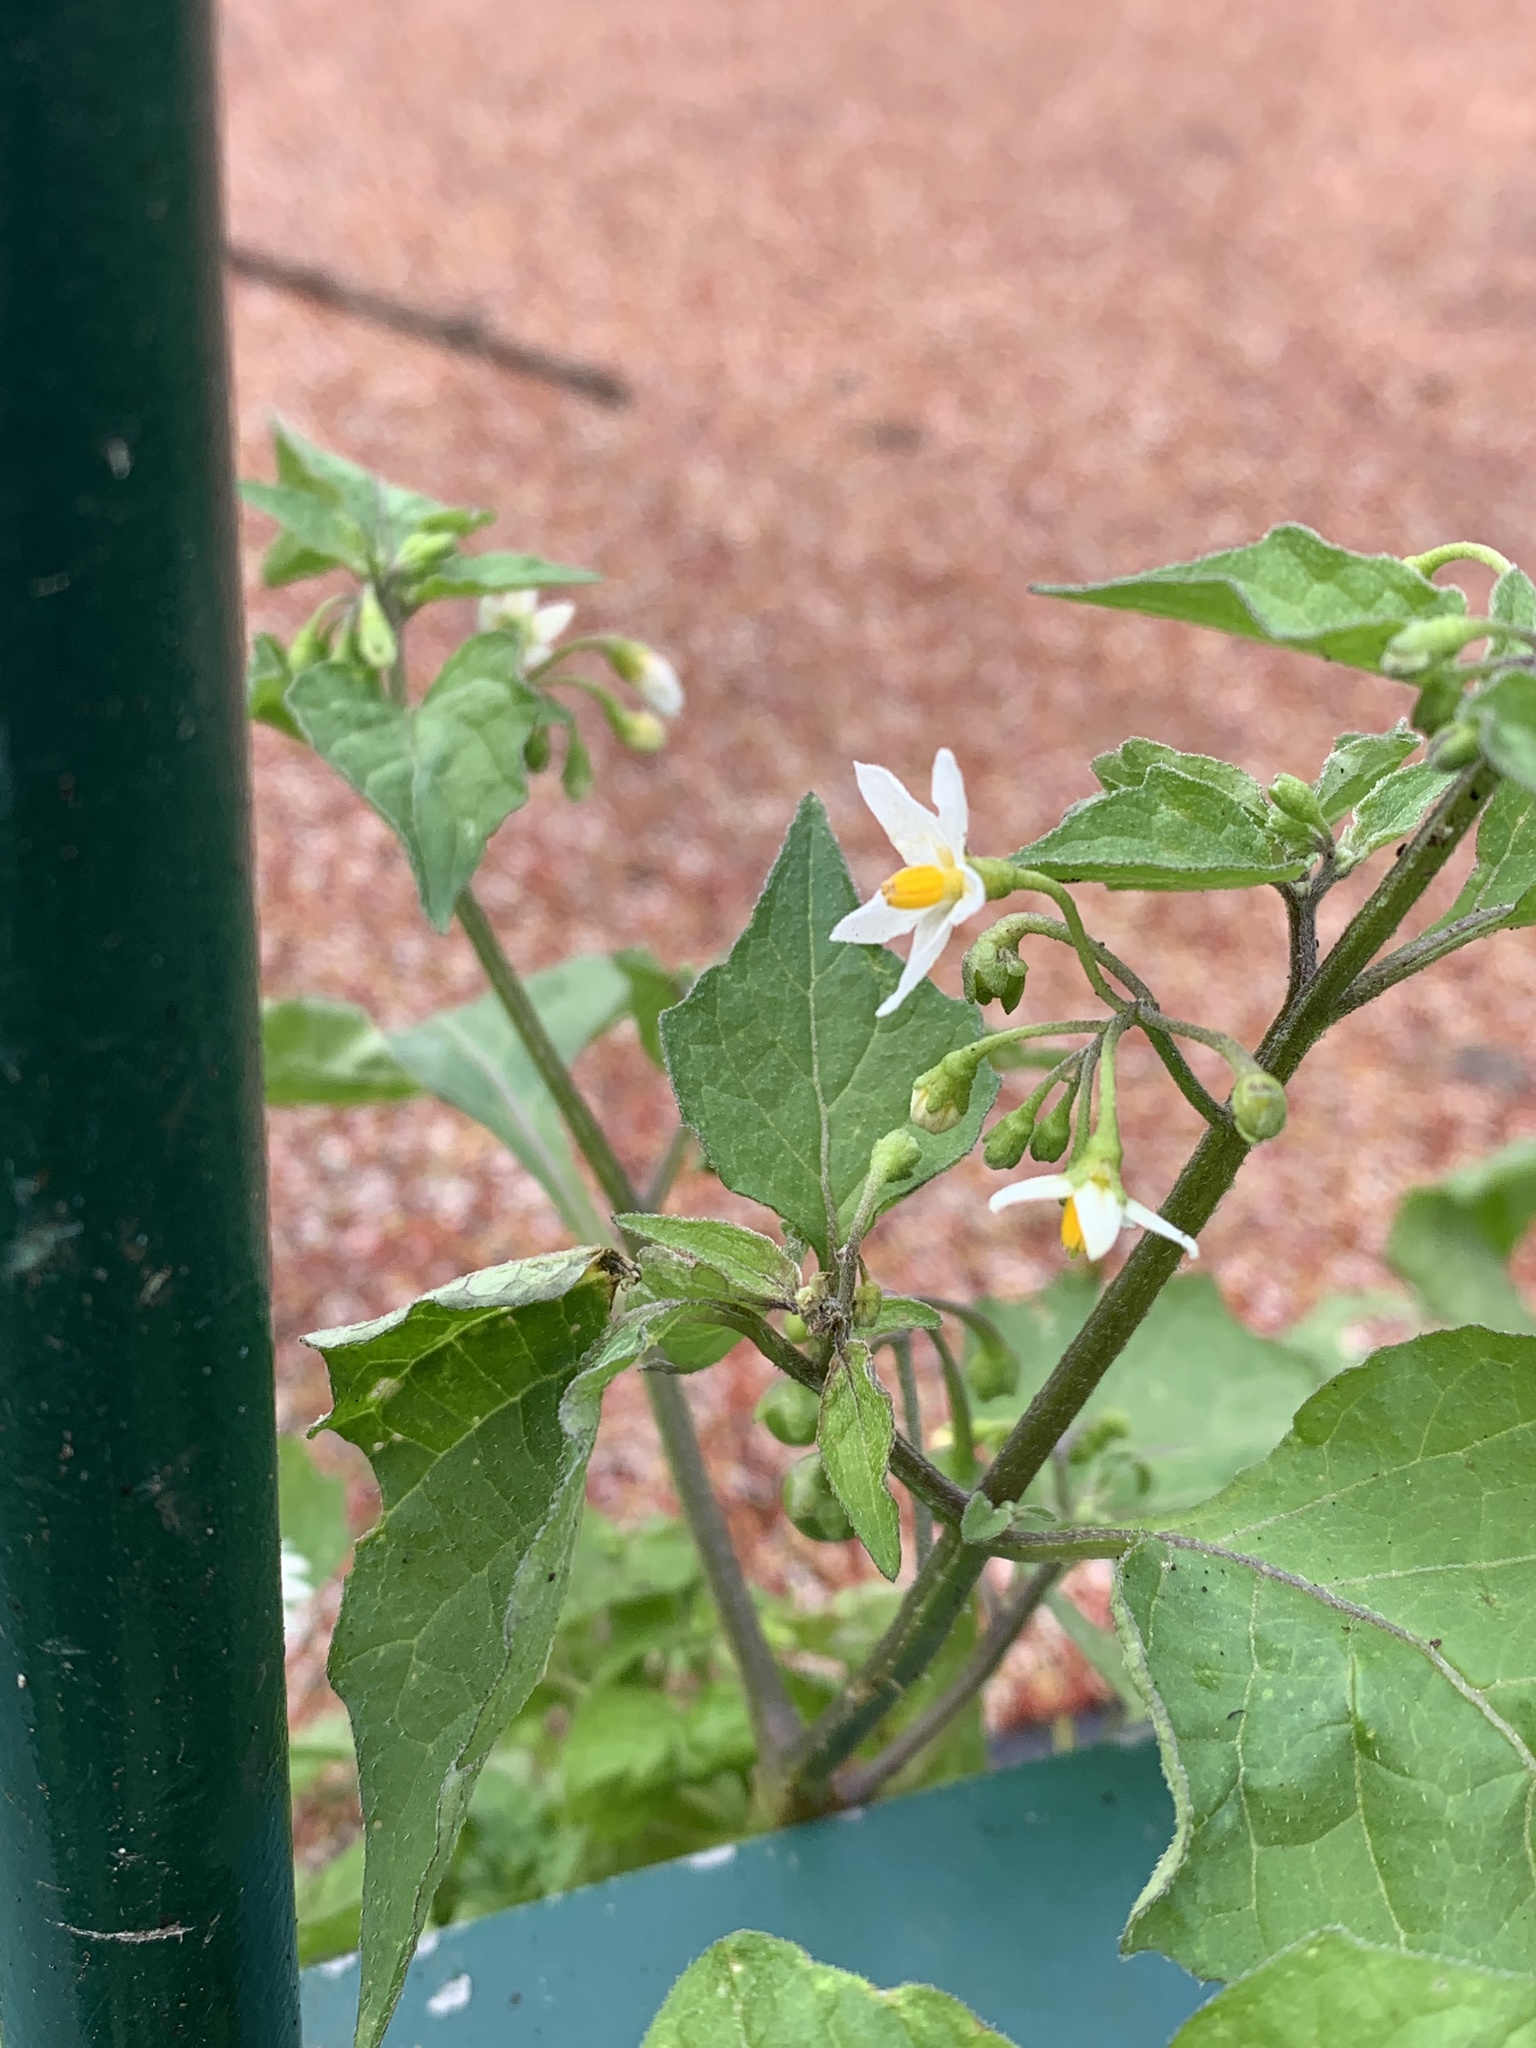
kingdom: Plantae
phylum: Tracheophyta
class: Magnoliopsida
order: Solanales
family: Solanaceae
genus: Solanum
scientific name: Solanum nigrum
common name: Black nightshade
